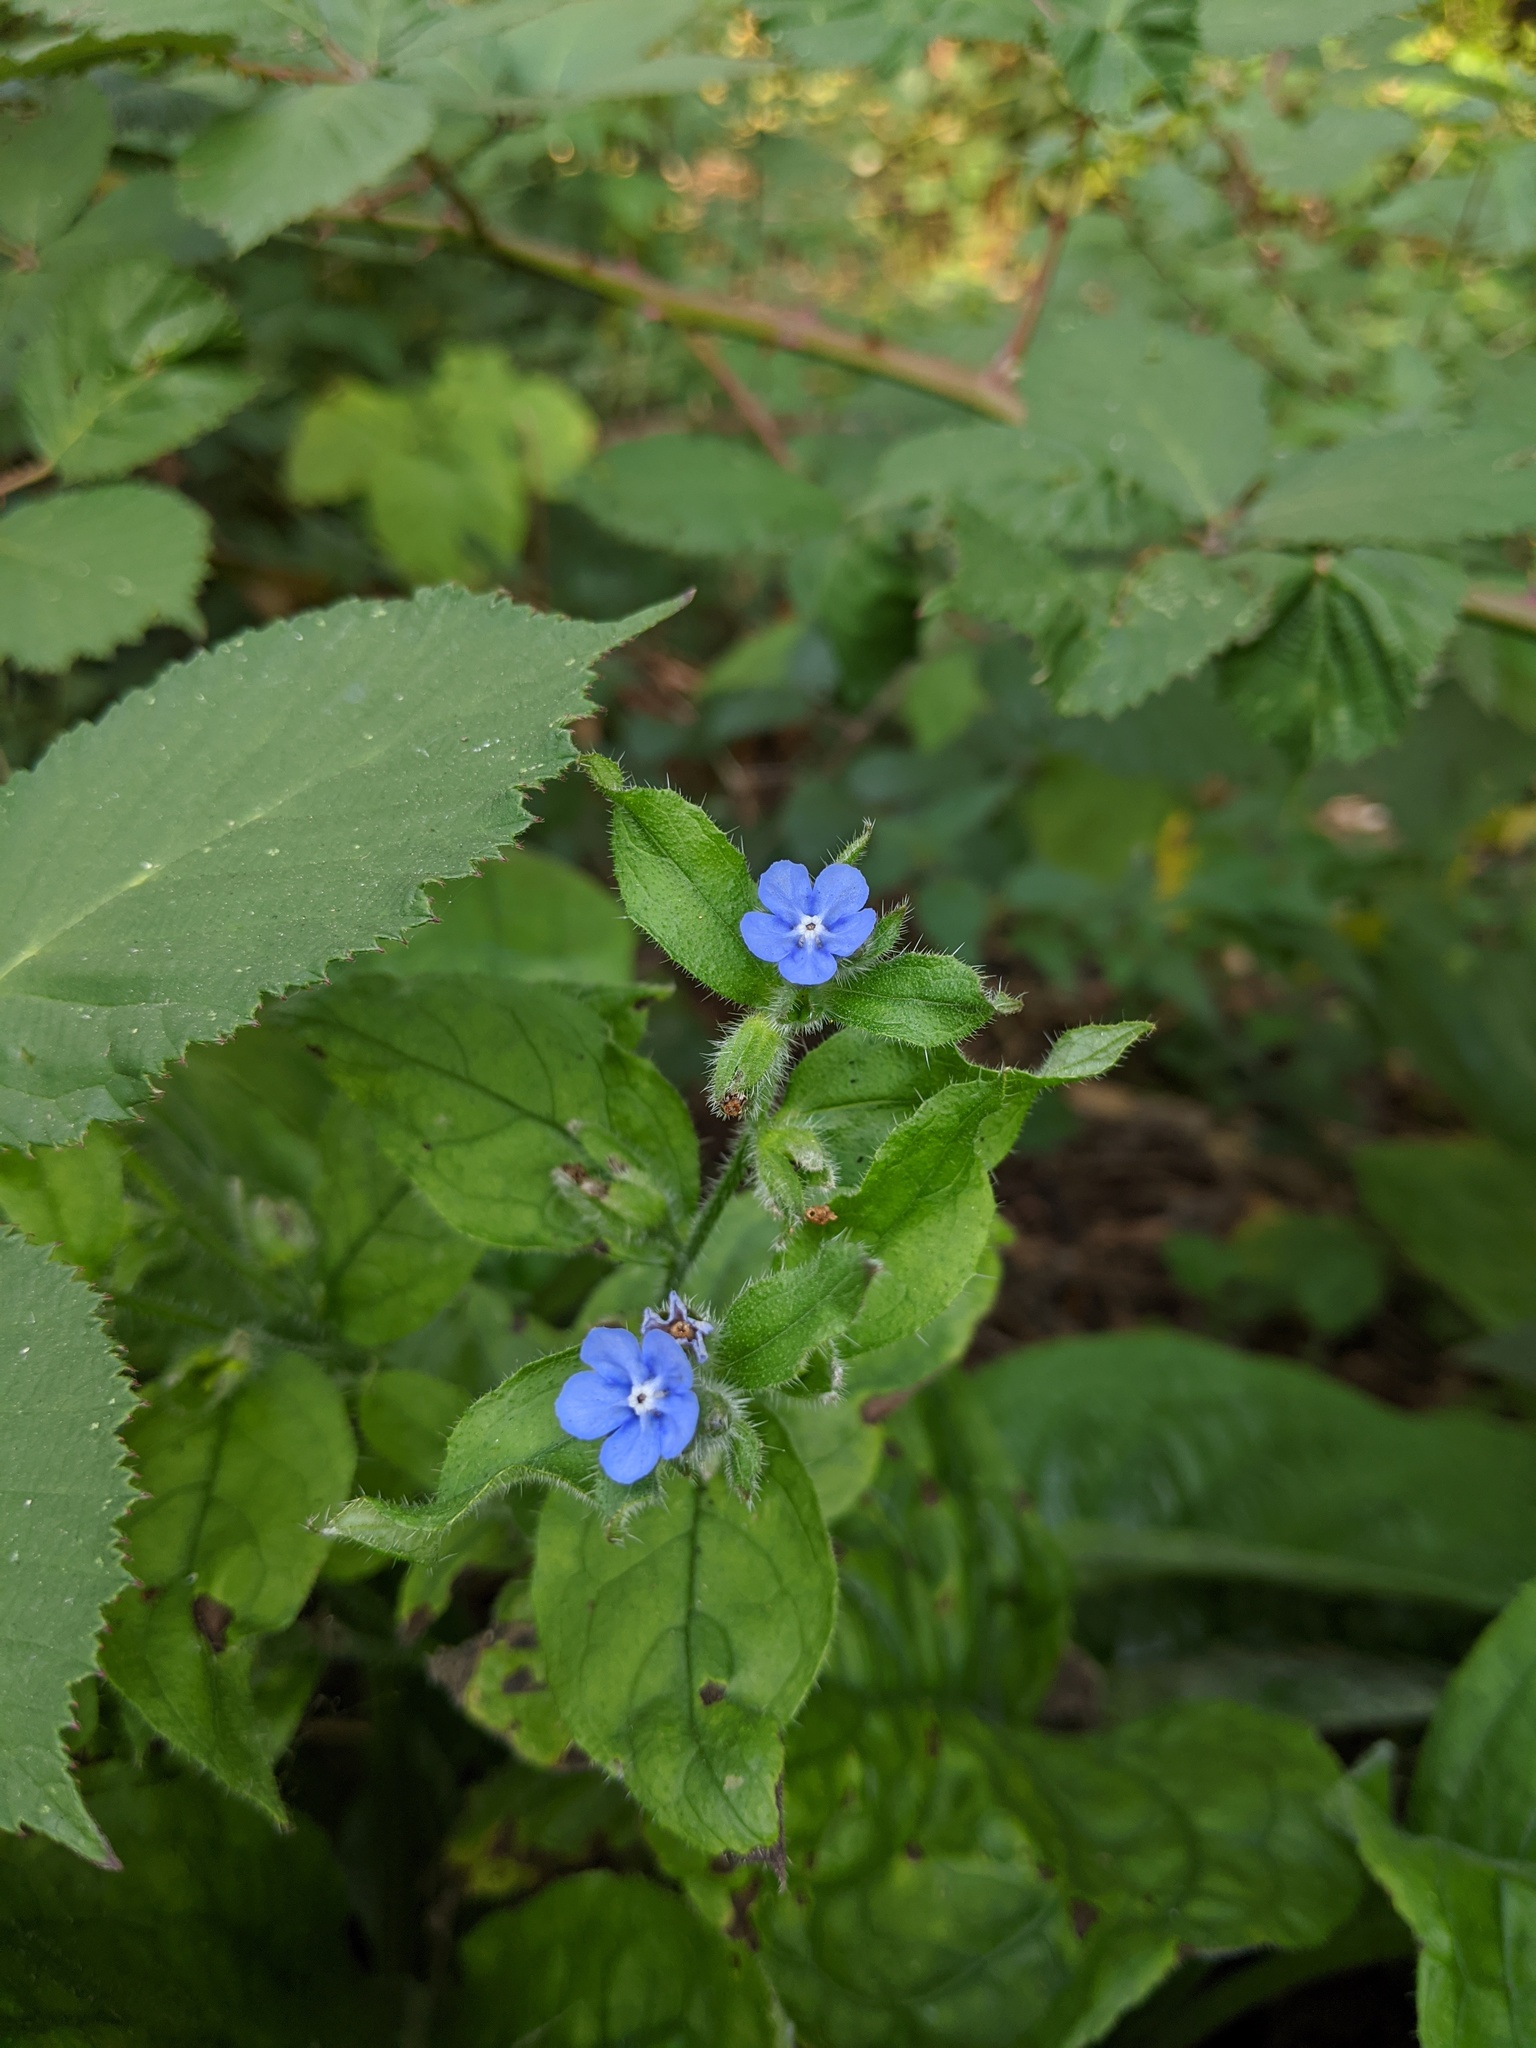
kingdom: Plantae
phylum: Tracheophyta
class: Magnoliopsida
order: Boraginales
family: Boraginaceae
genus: Pentaglottis
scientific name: Pentaglottis sempervirens
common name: Green alkanet
